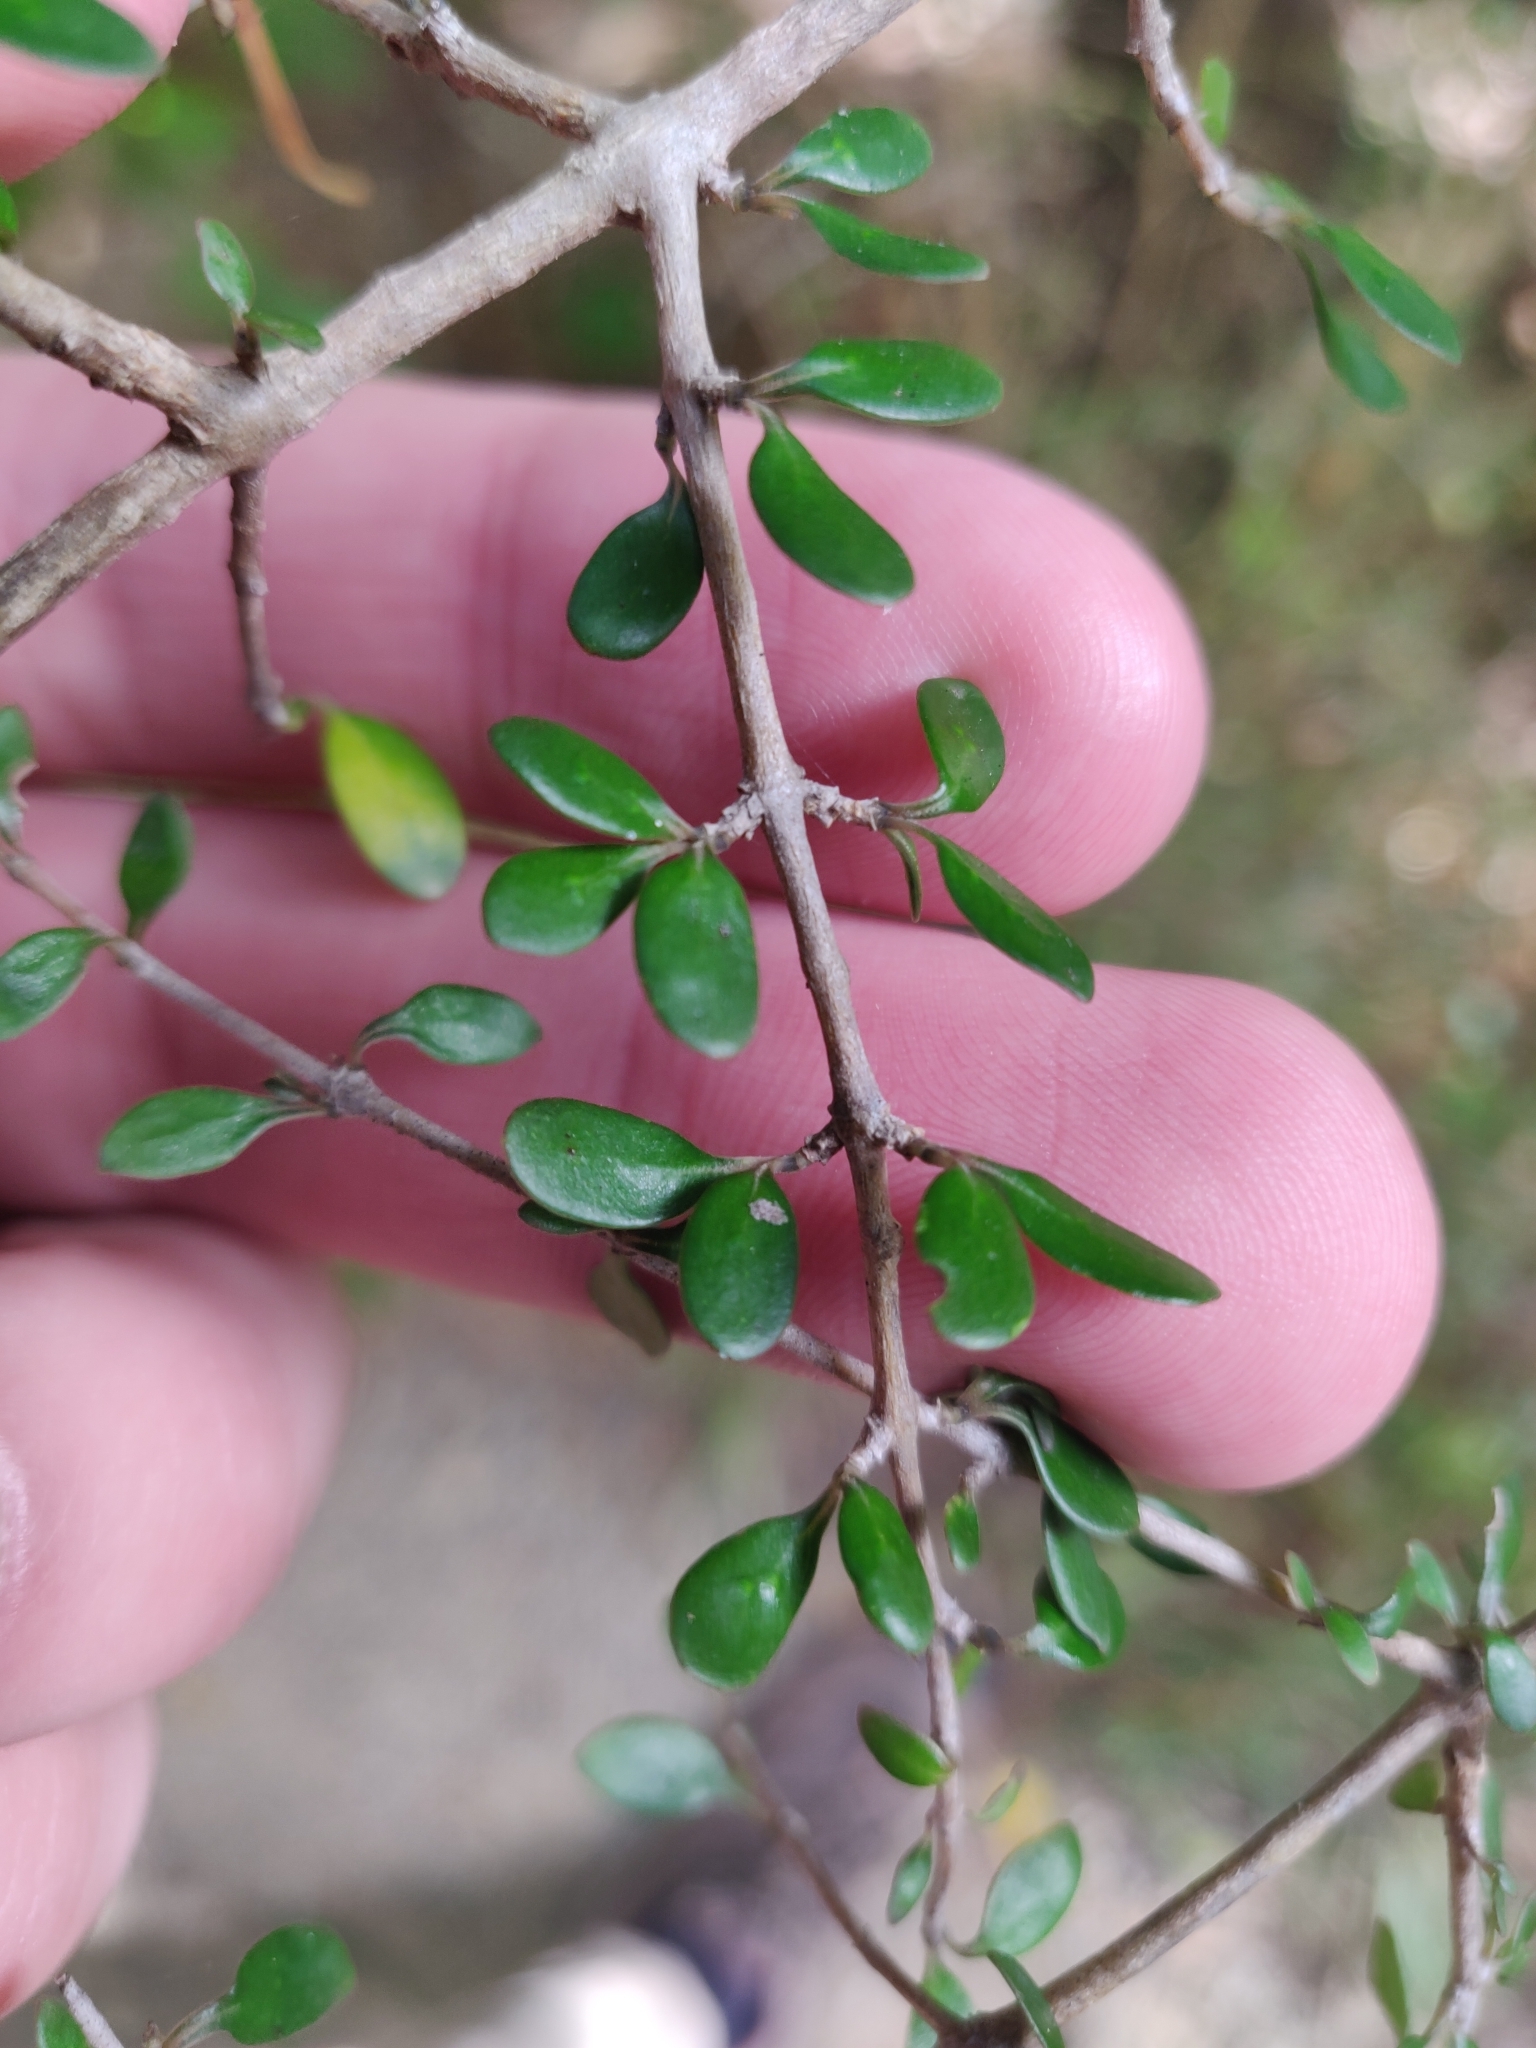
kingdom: Plantae
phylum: Tracheophyta
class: Magnoliopsida
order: Gentianales
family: Rubiaceae
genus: Coprosma
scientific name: Coprosma propinqua
